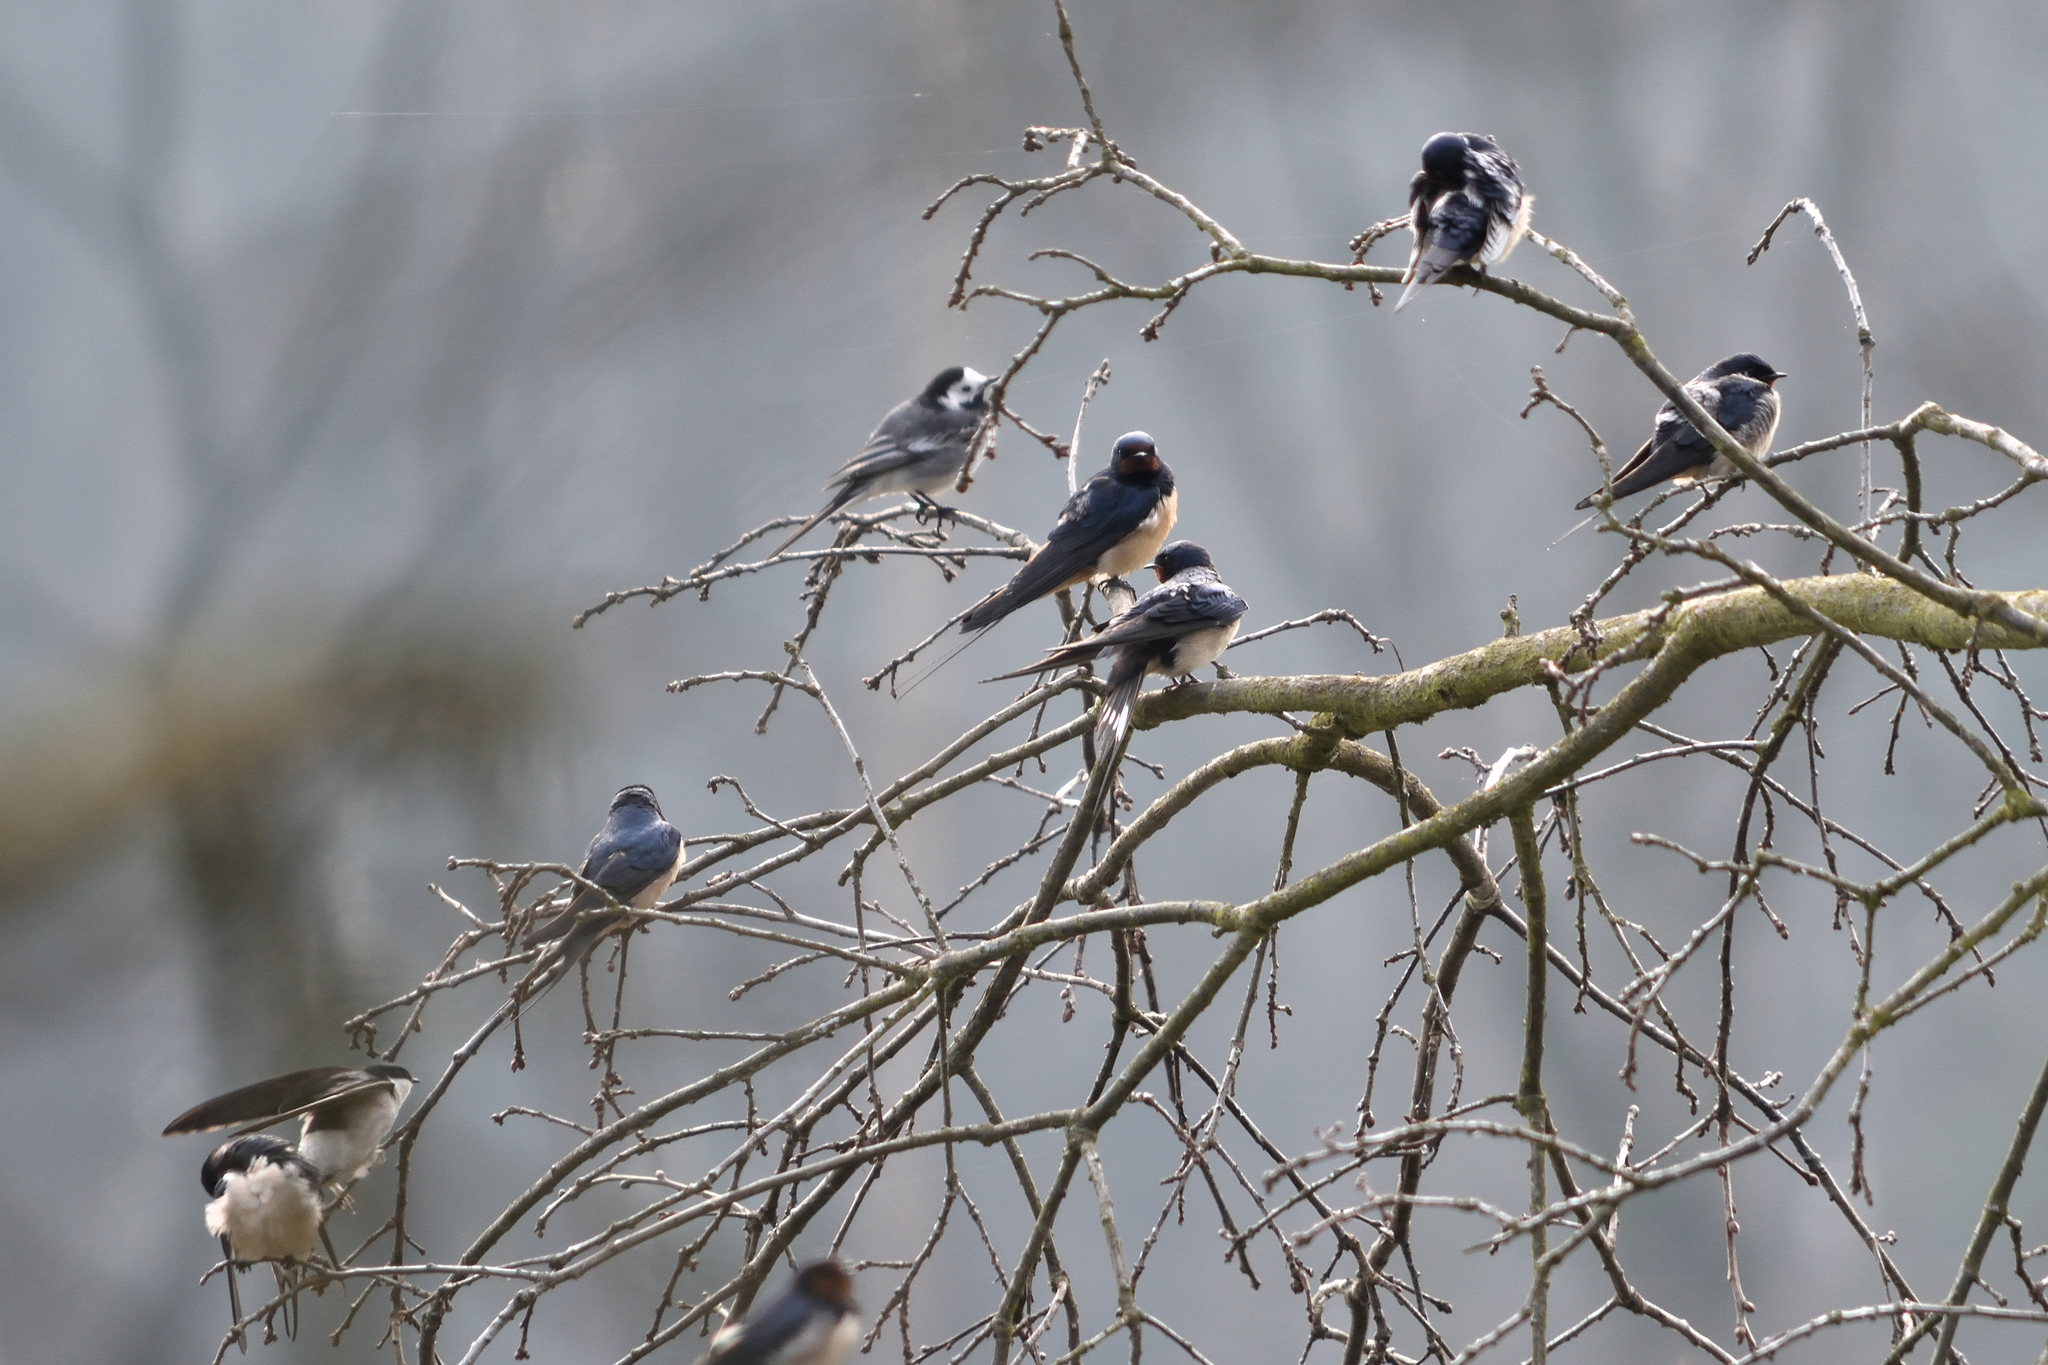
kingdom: Animalia
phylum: Chordata
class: Aves
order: Passeriformes
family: Hirundinidae
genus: Hirundo
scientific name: Hirundo rustica
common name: Barn swallow
